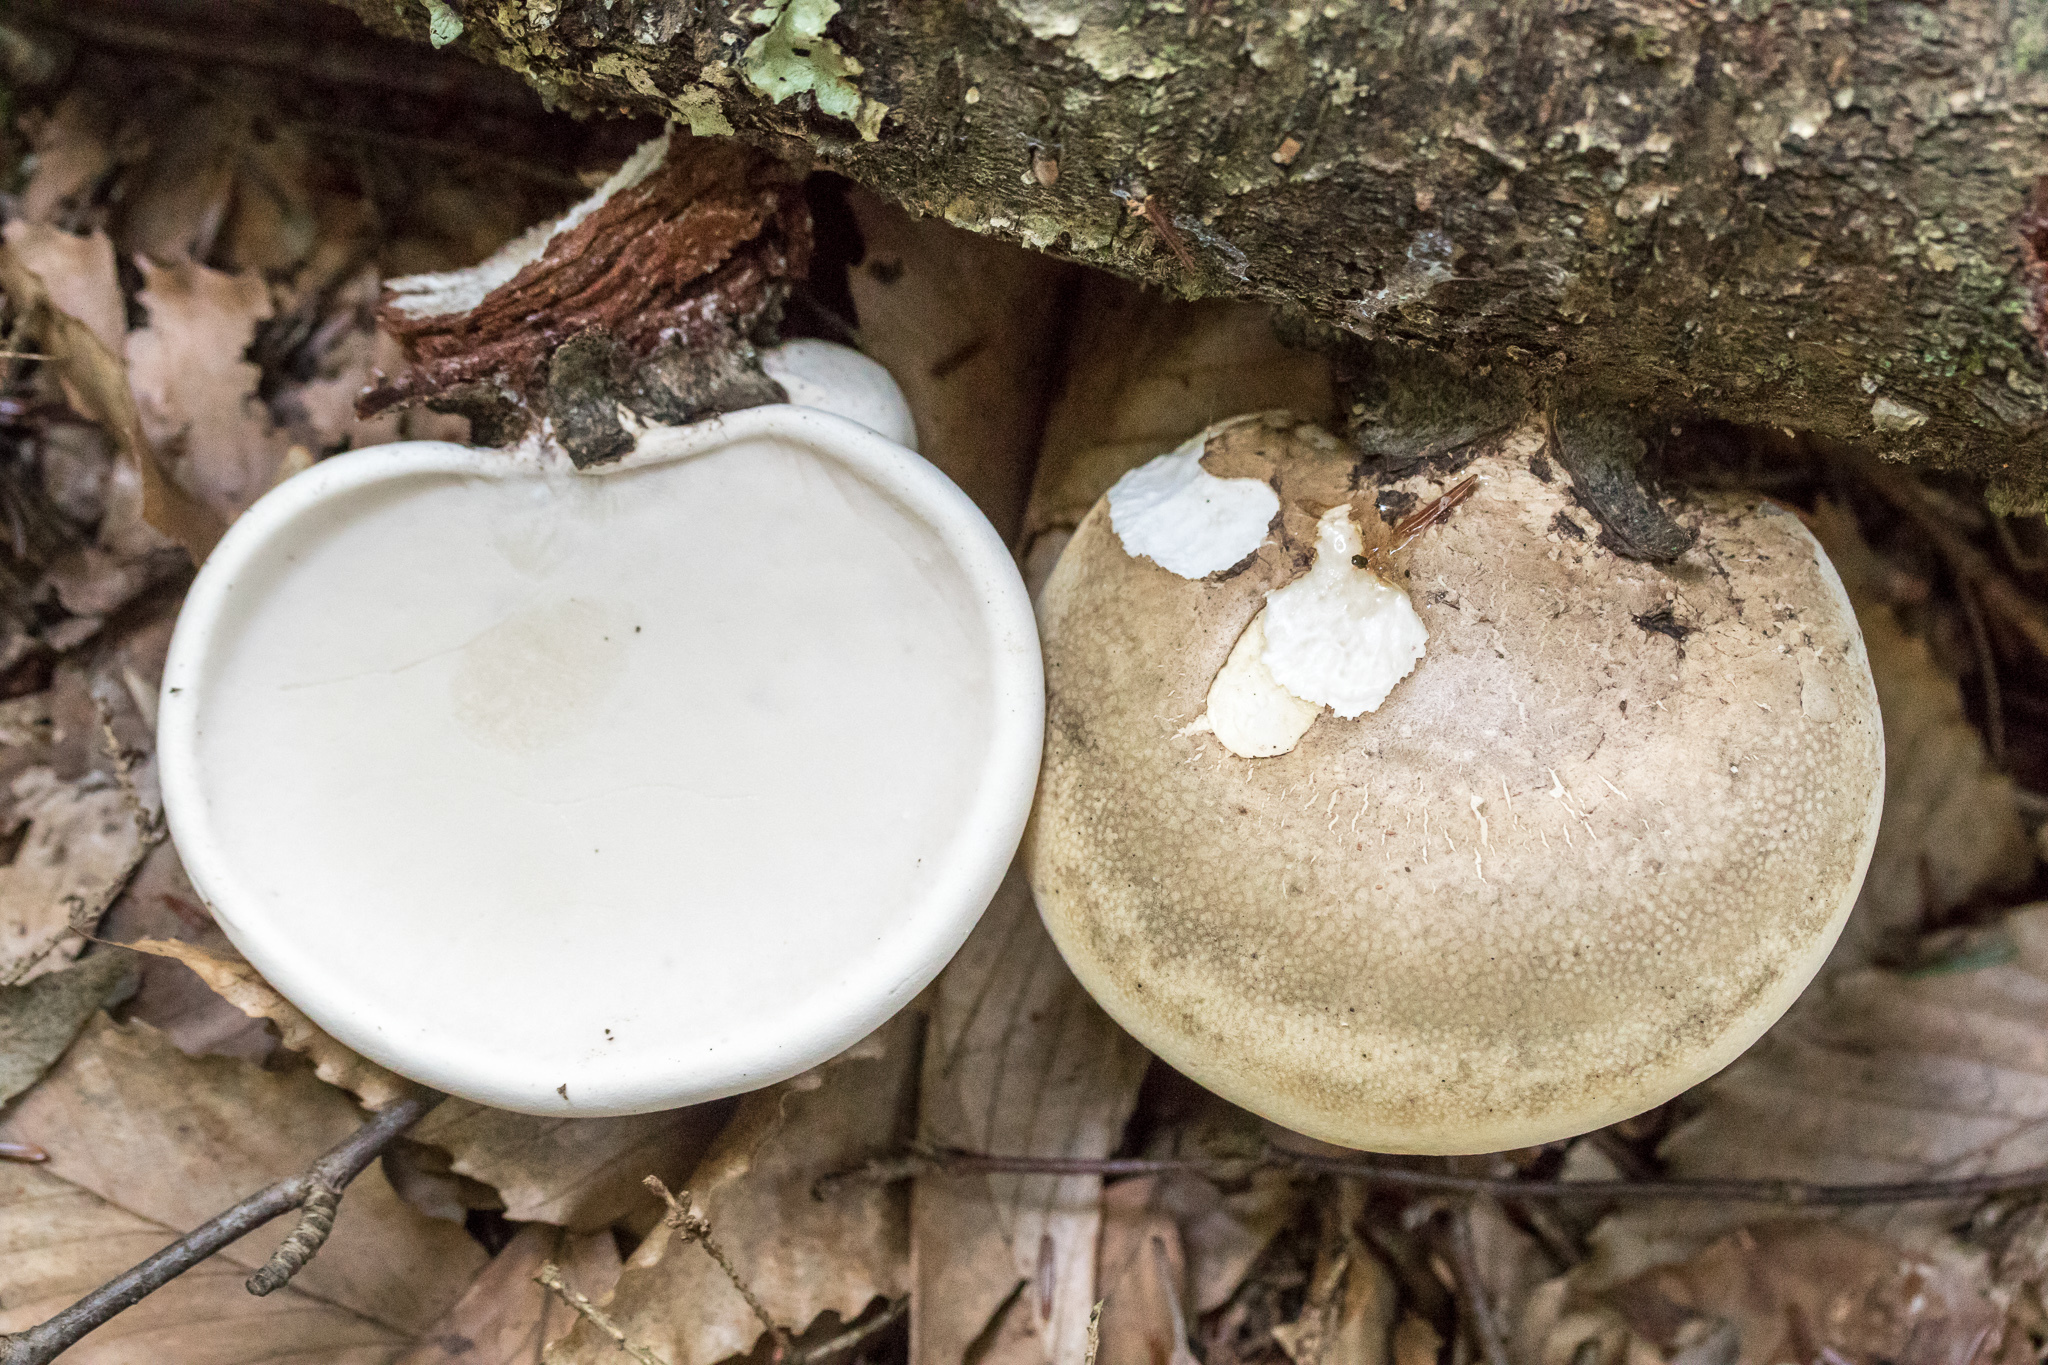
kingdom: Fungi
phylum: Basidiomycota
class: Agaricomycetes
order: Polyporales
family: Fomitopsidaceae
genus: Fomitopsis
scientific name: Fomitopsis betulina
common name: Birch polypore
